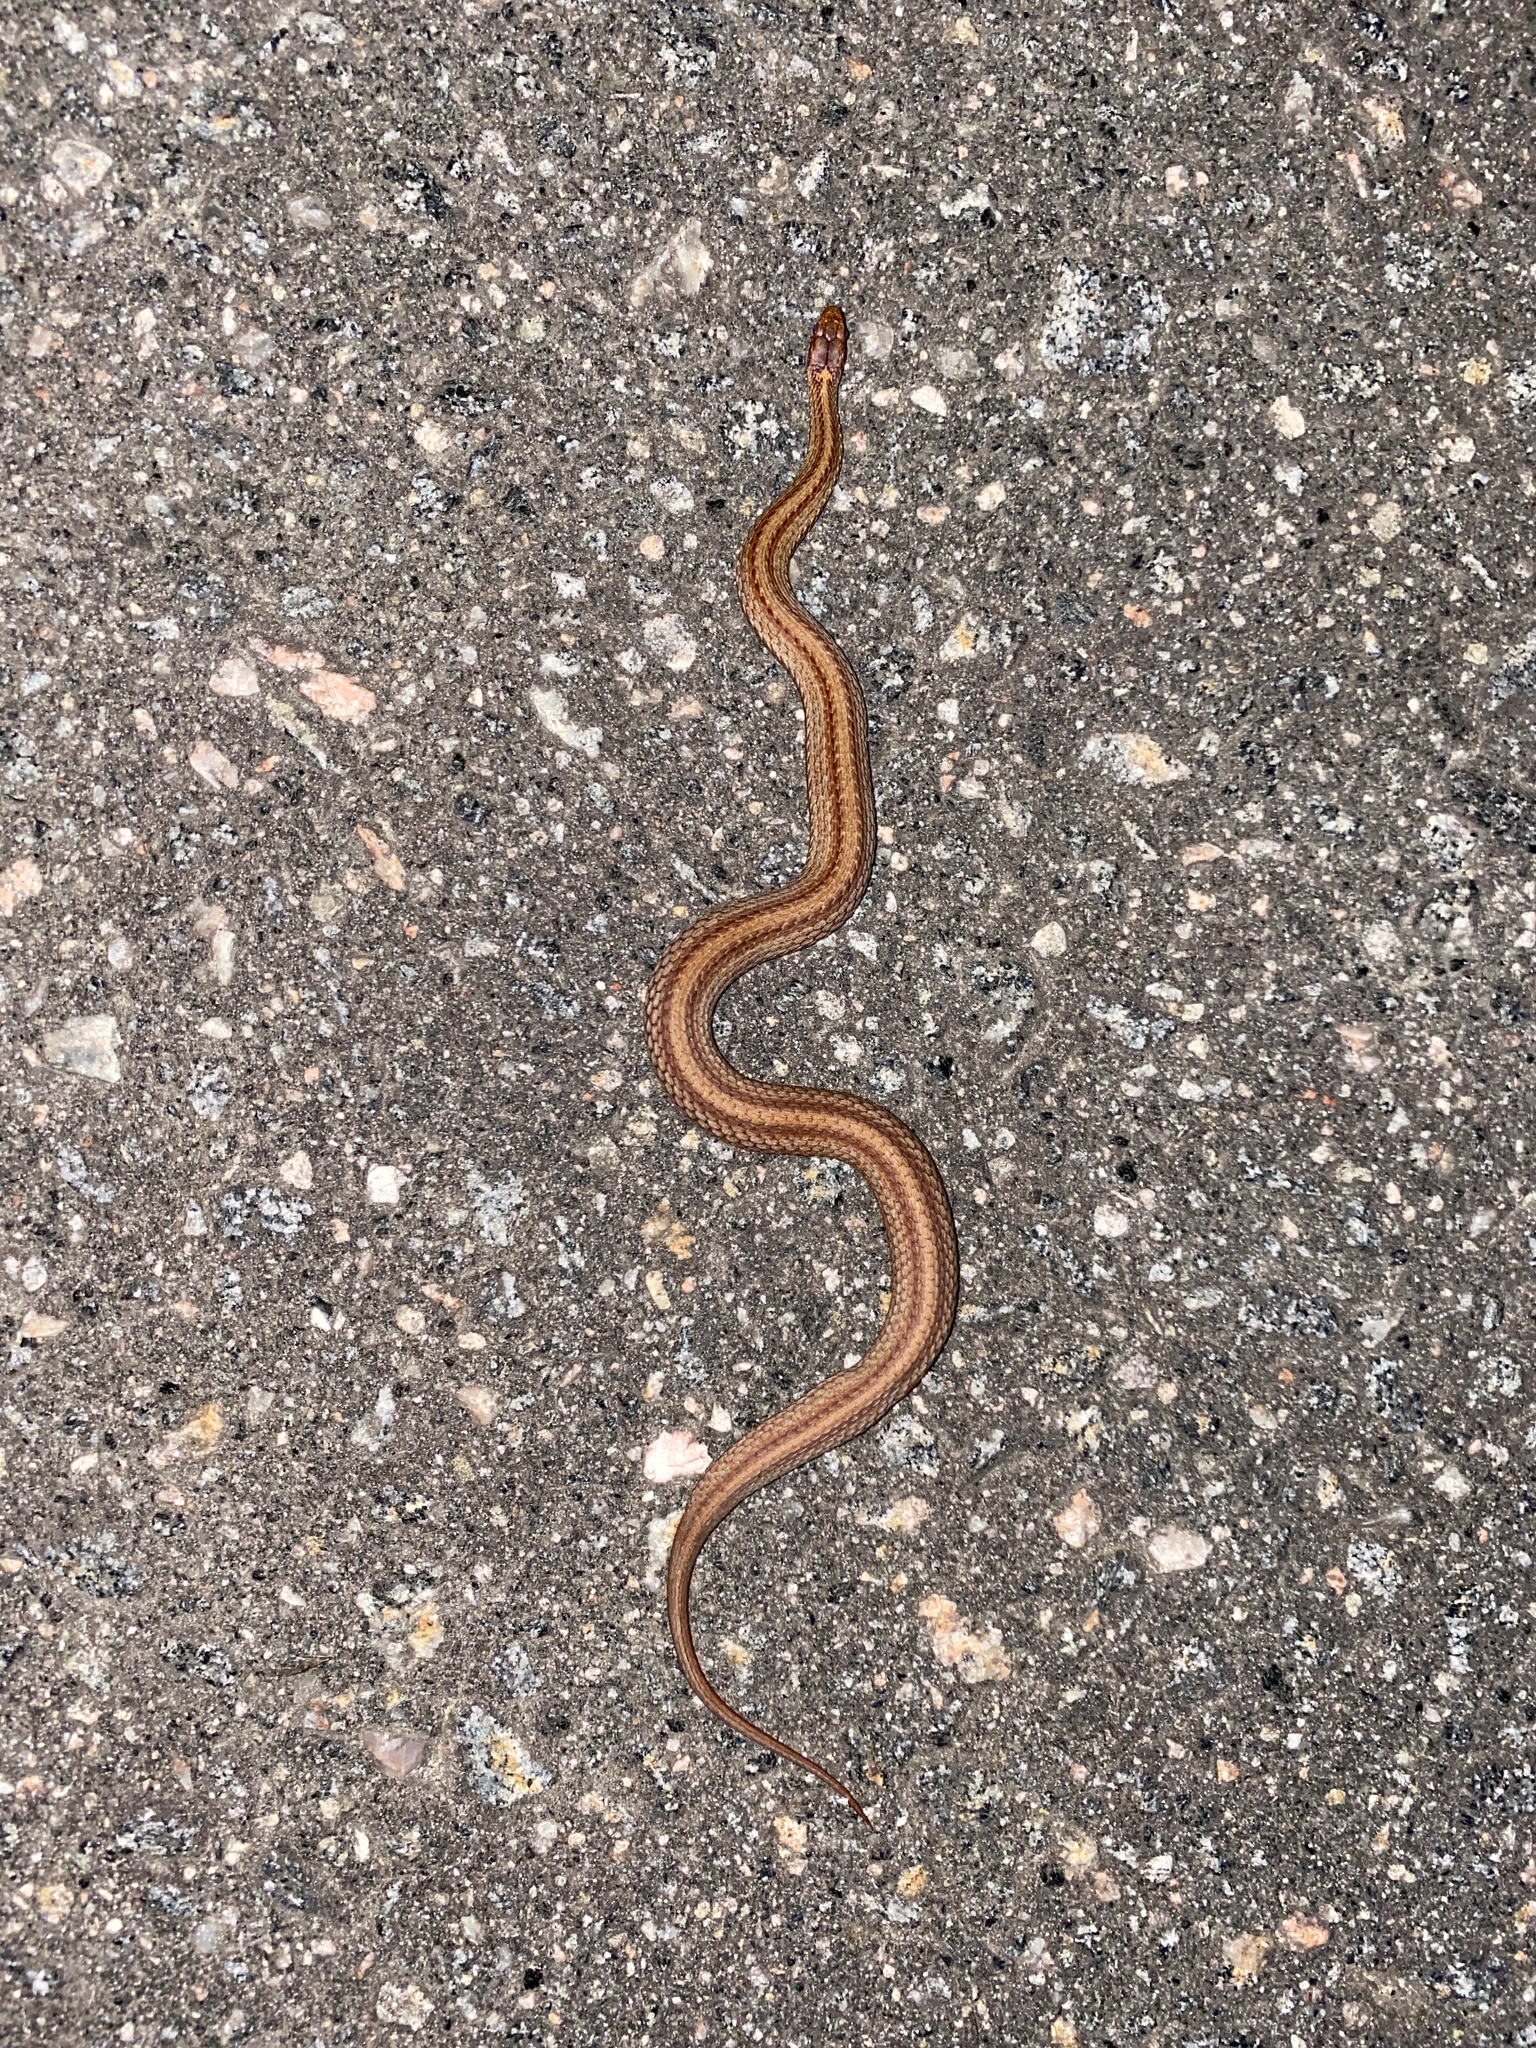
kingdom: Animalia
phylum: Chordata
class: Squamata
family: Colubridae
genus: Storeria
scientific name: Storeria occipitomaculata
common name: Redbelly snake
